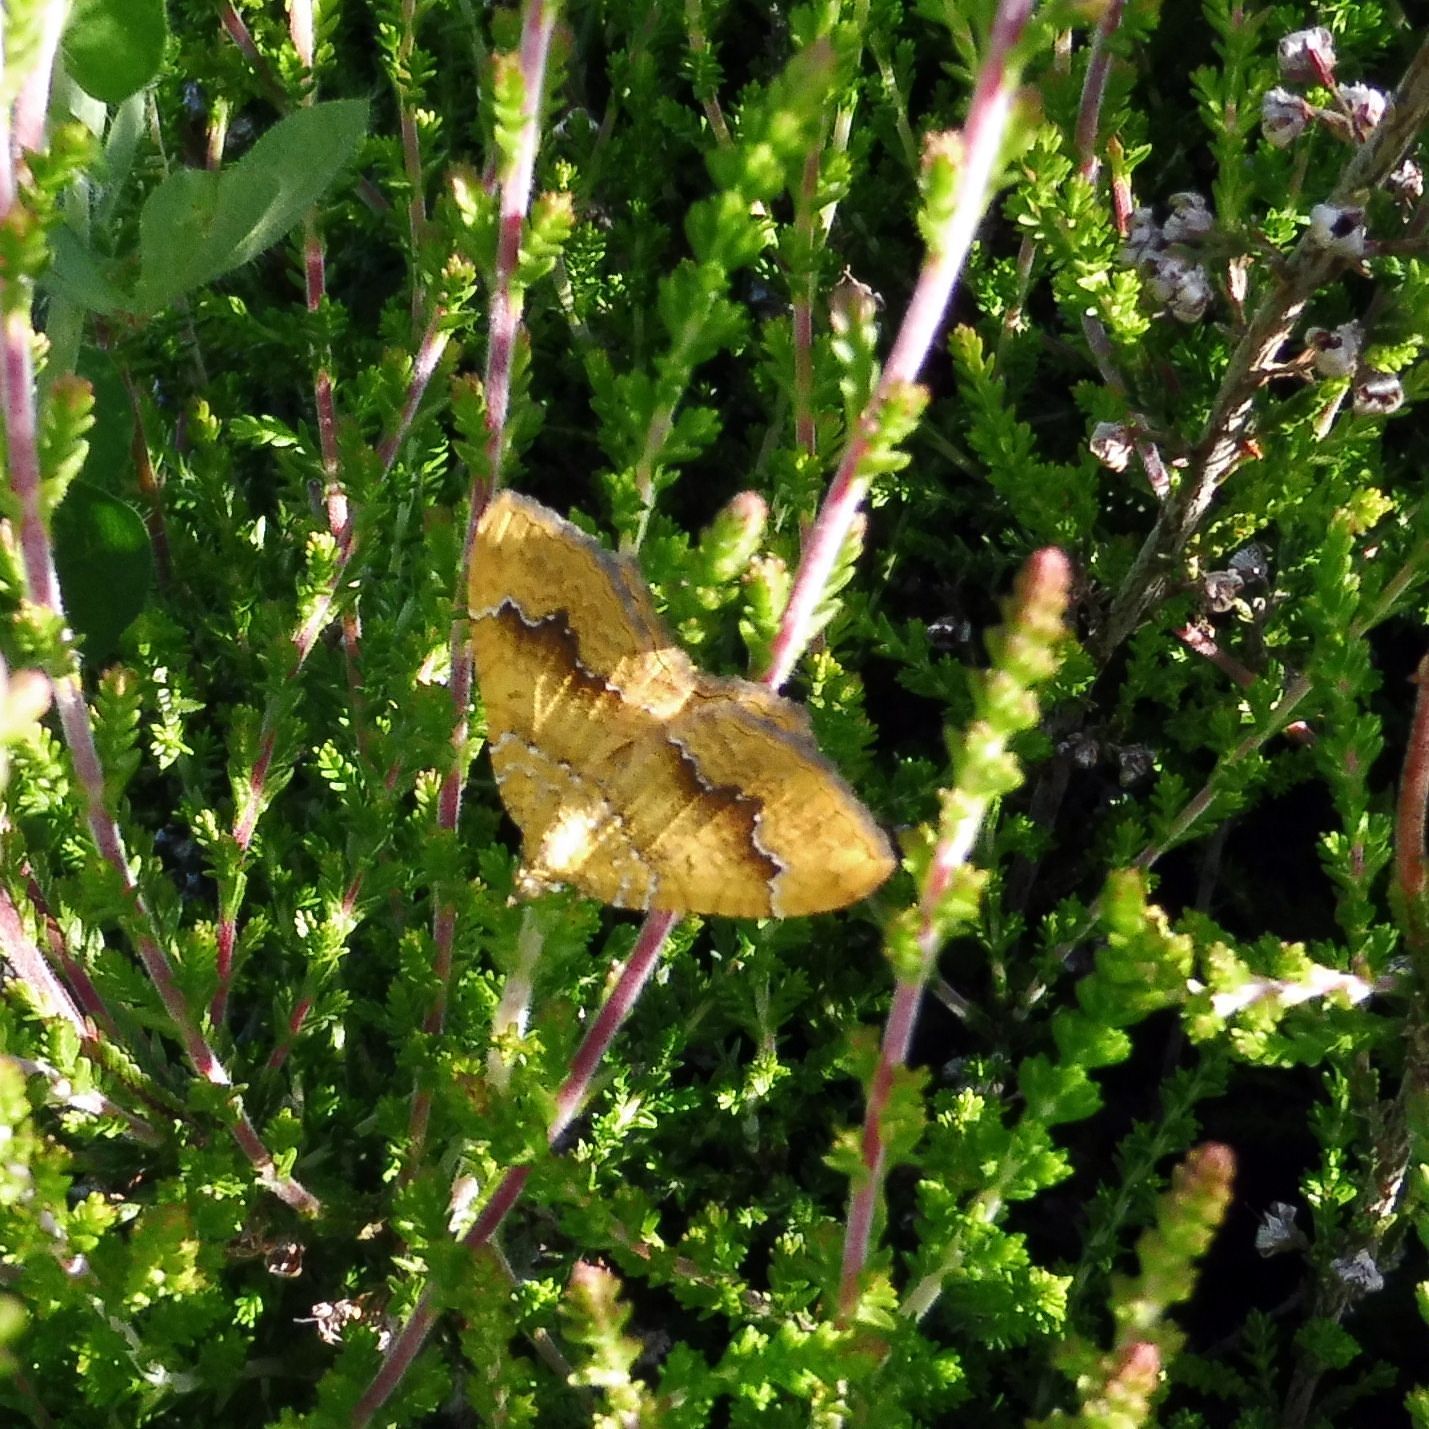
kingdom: Animalia
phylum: Arthropoda
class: Insecta
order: Lepidoptera
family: Geometridae
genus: Camptogramma
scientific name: Camptogramma bilineata
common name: Yellow shell
